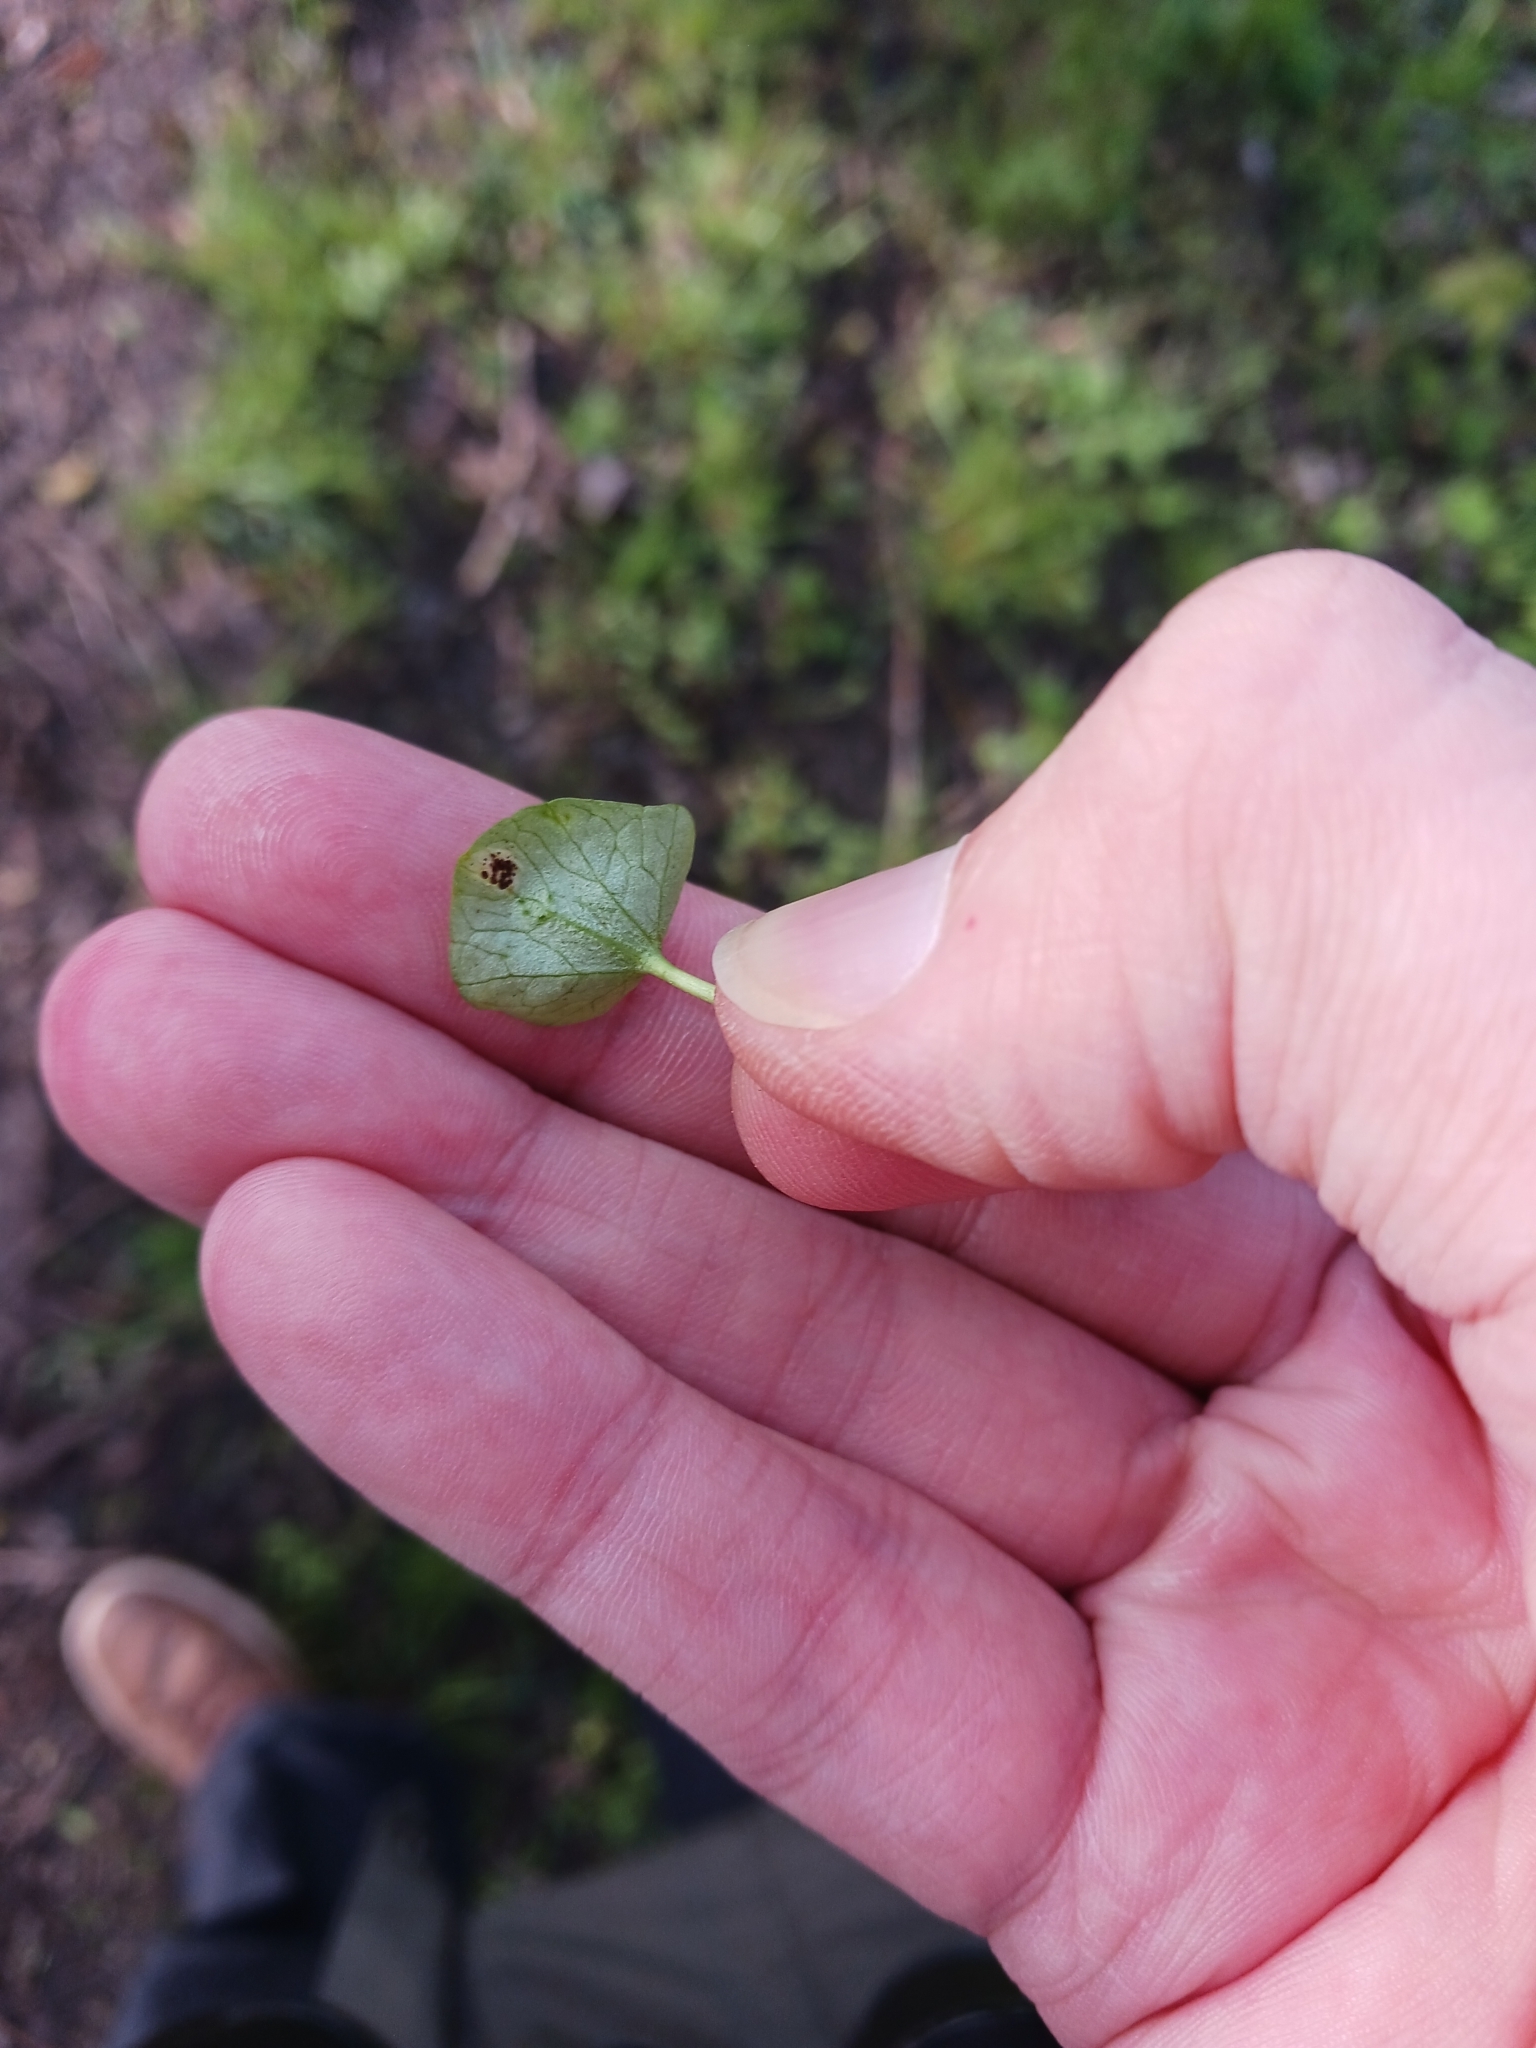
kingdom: Fungi
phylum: Basidiomycota
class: Pucciniomycetes
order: Pucciniales
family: Pucciniaceae
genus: Uromyces
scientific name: Uromyces ficariae
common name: Bitter chocolate rust
